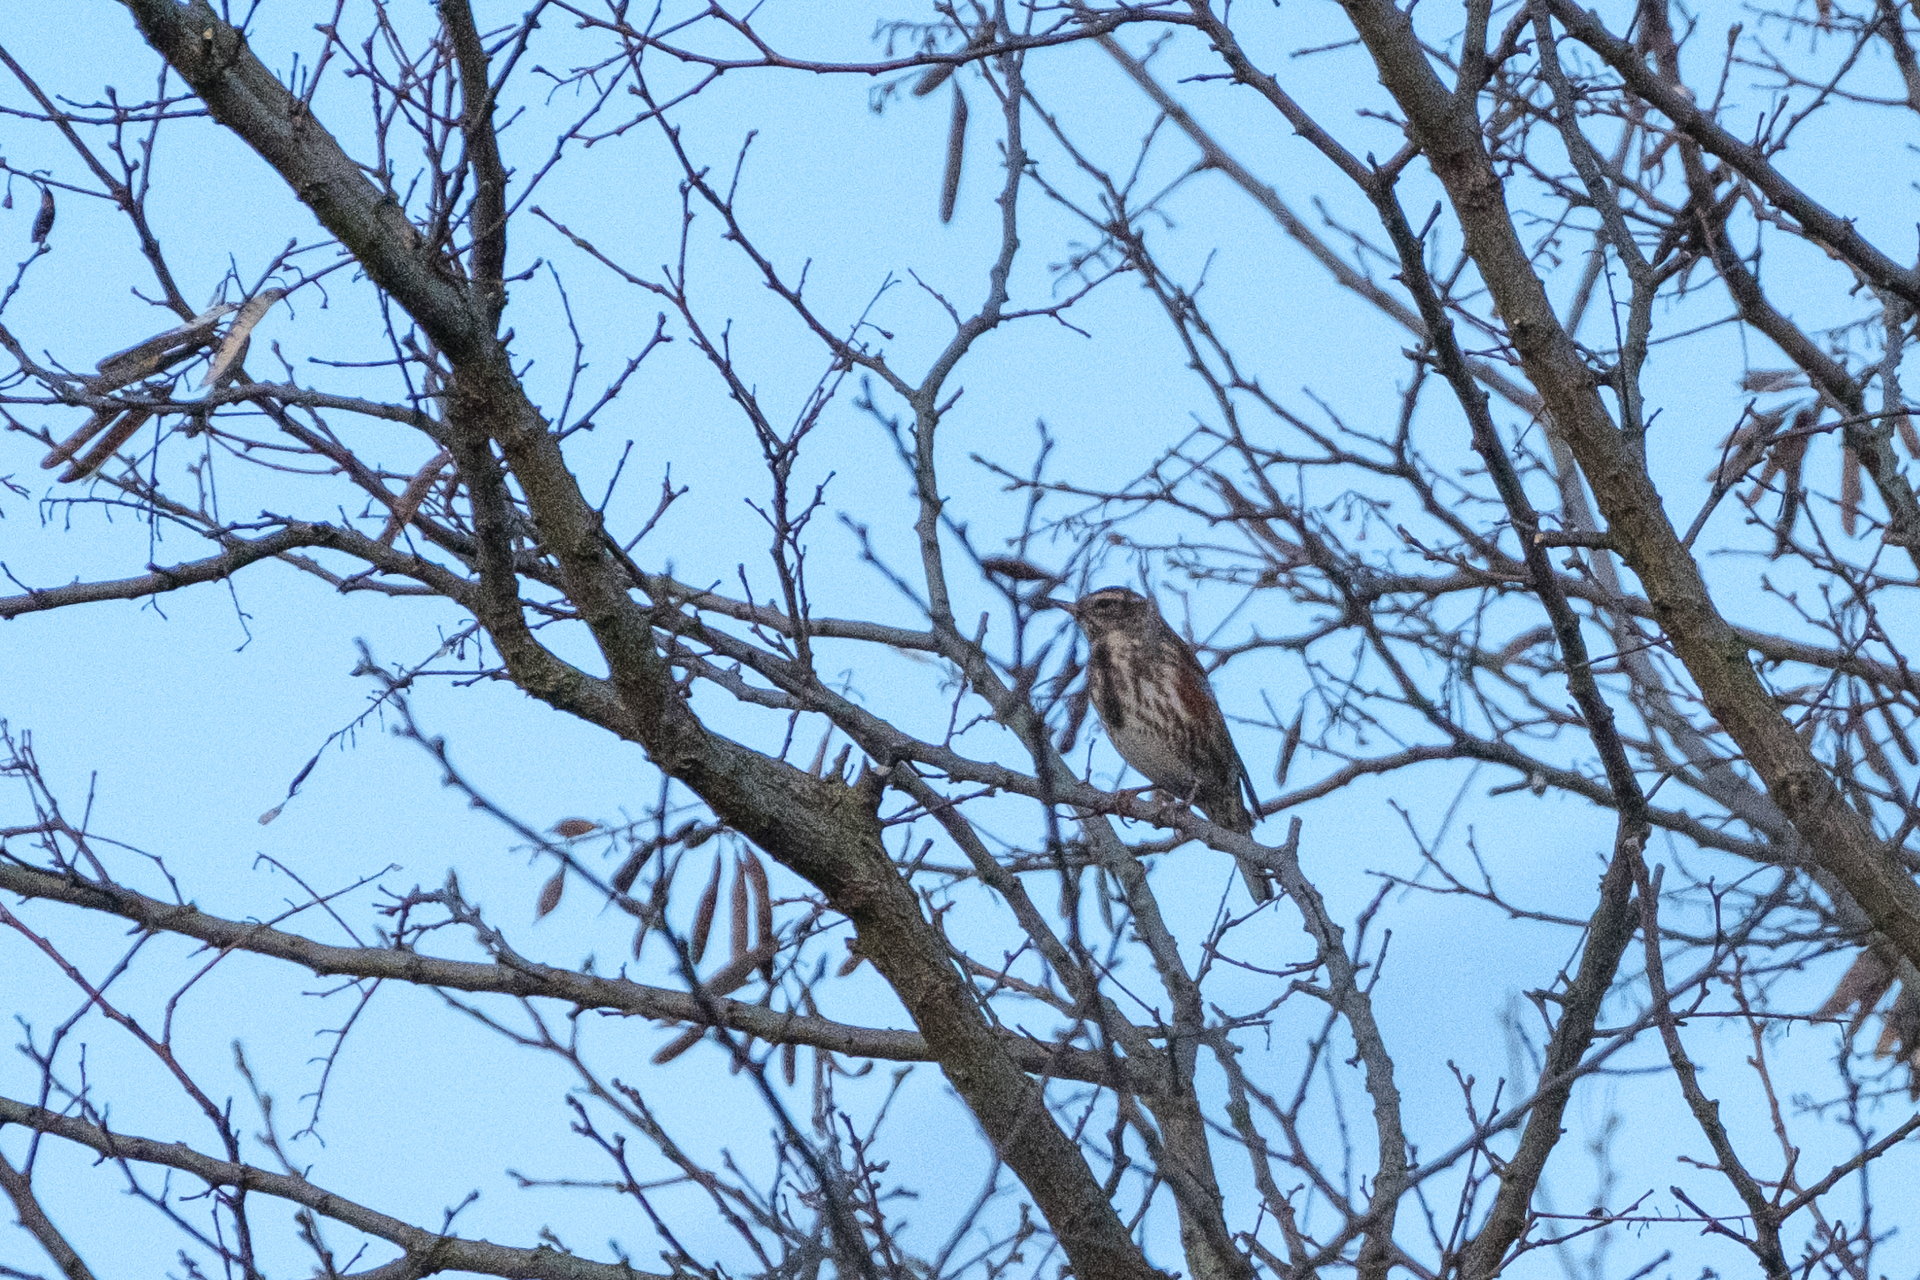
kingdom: Animalia
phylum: Chordata
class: Aves
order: Passeriformes
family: Turdidae
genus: Turdus
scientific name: Turdus iliacus
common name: Redwing
